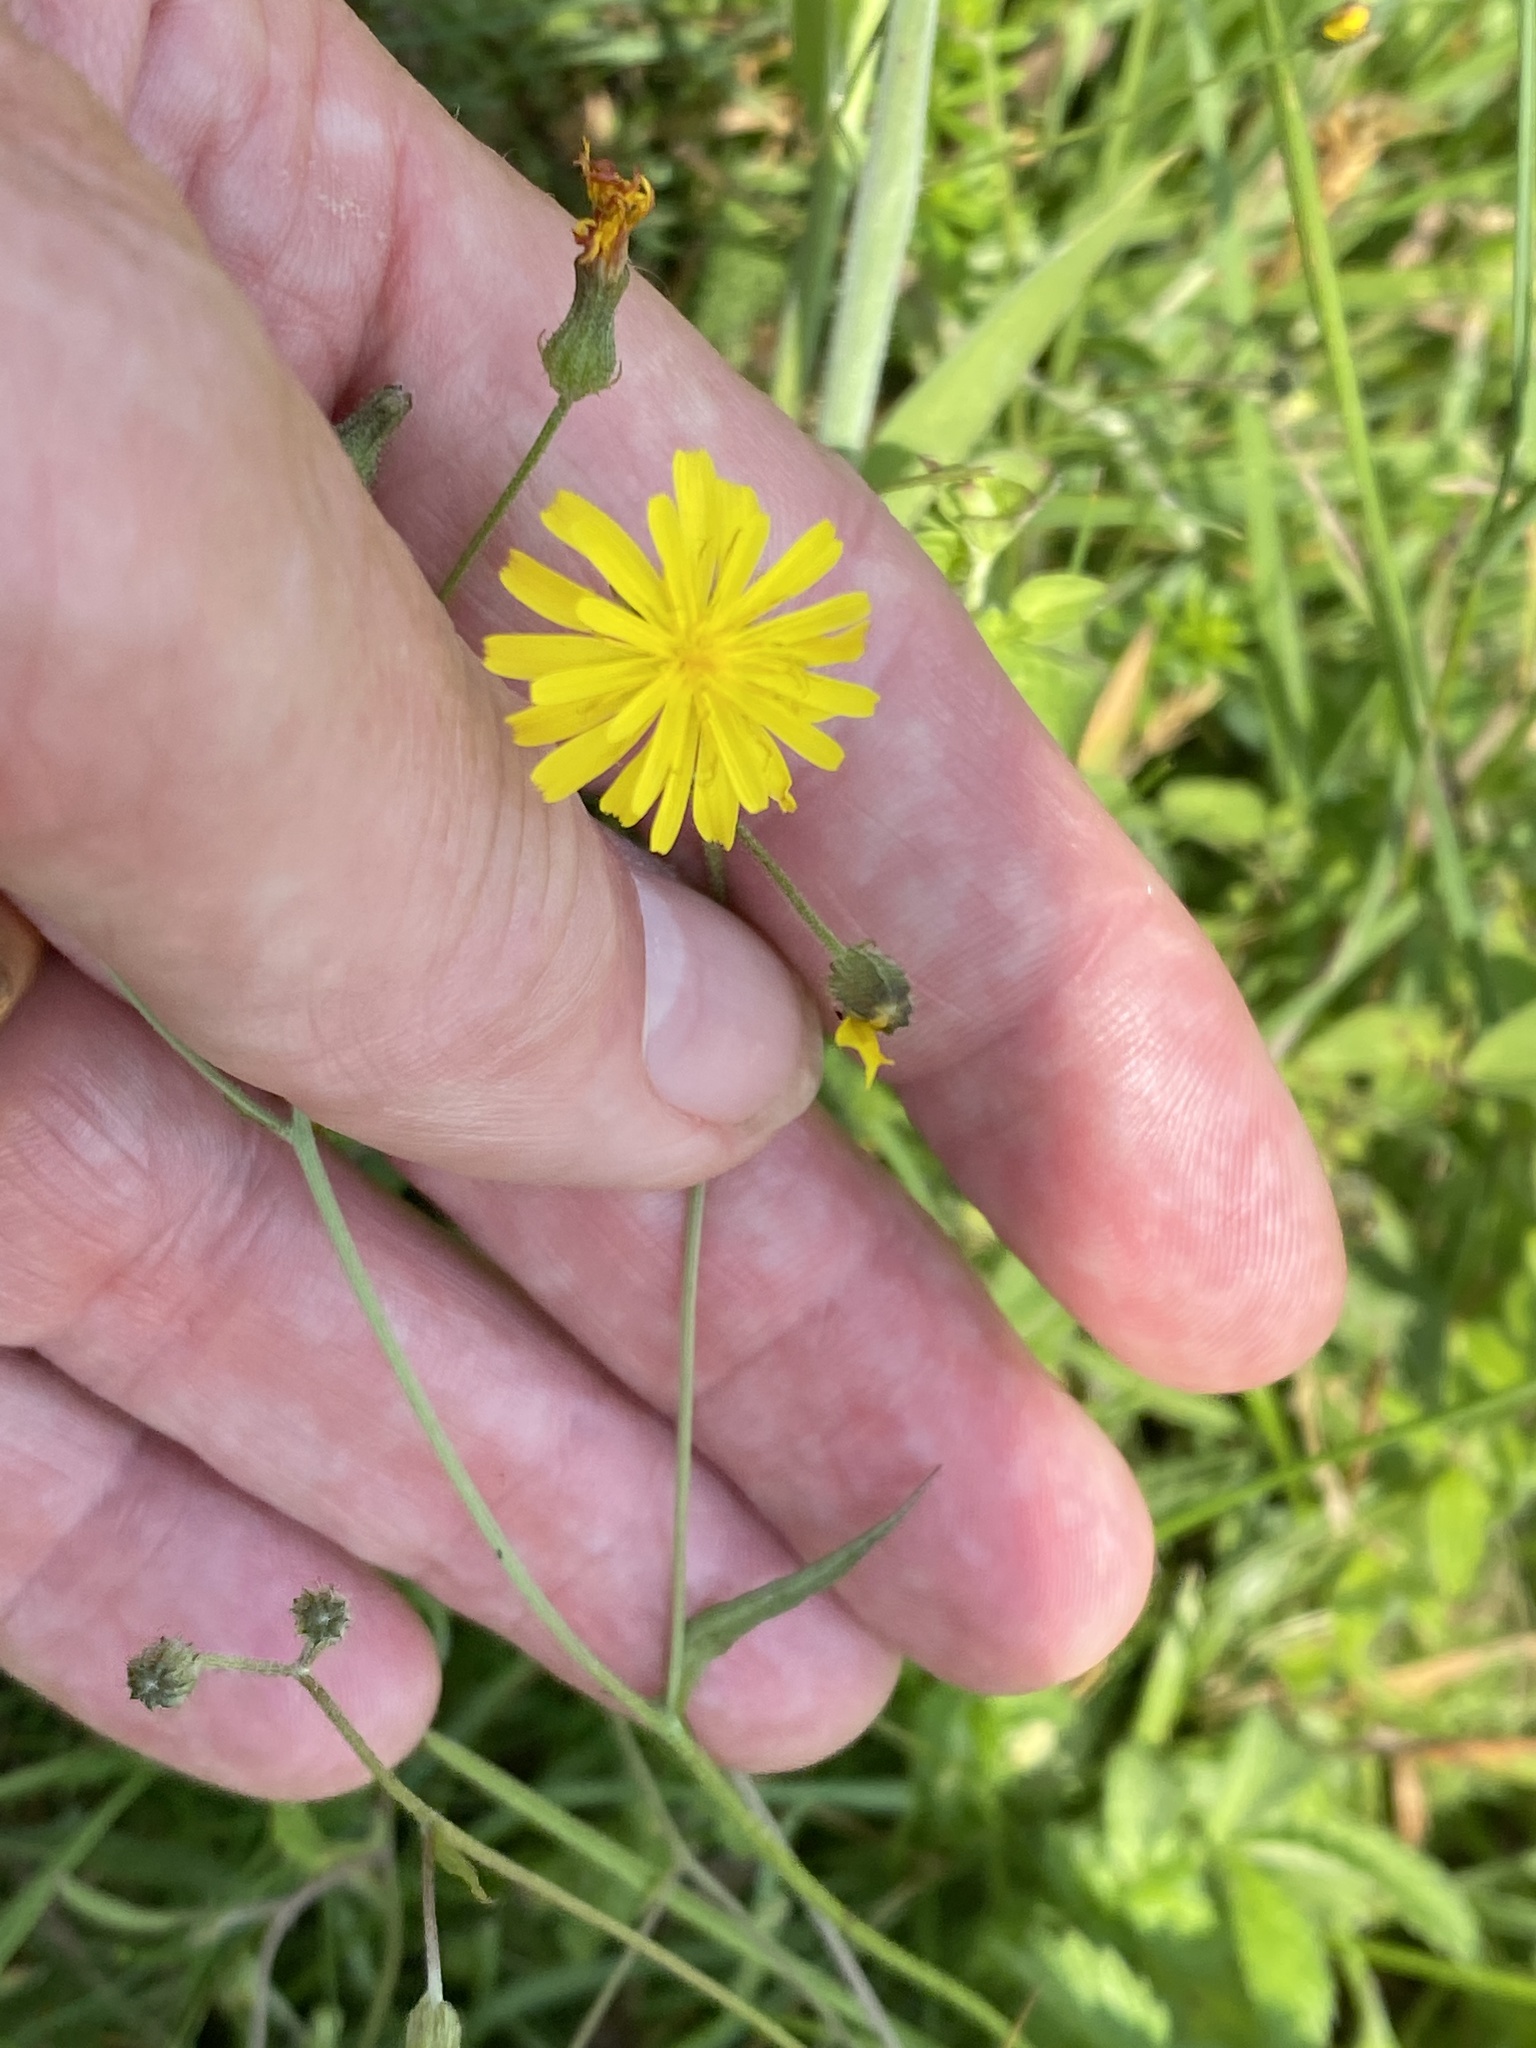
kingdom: Plantae
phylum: Tracheophyta
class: Magnoliopsida
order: Asterales
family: Asteraceae
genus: Crepis
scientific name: Crepis capillaris
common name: Smooth hawksbeard
